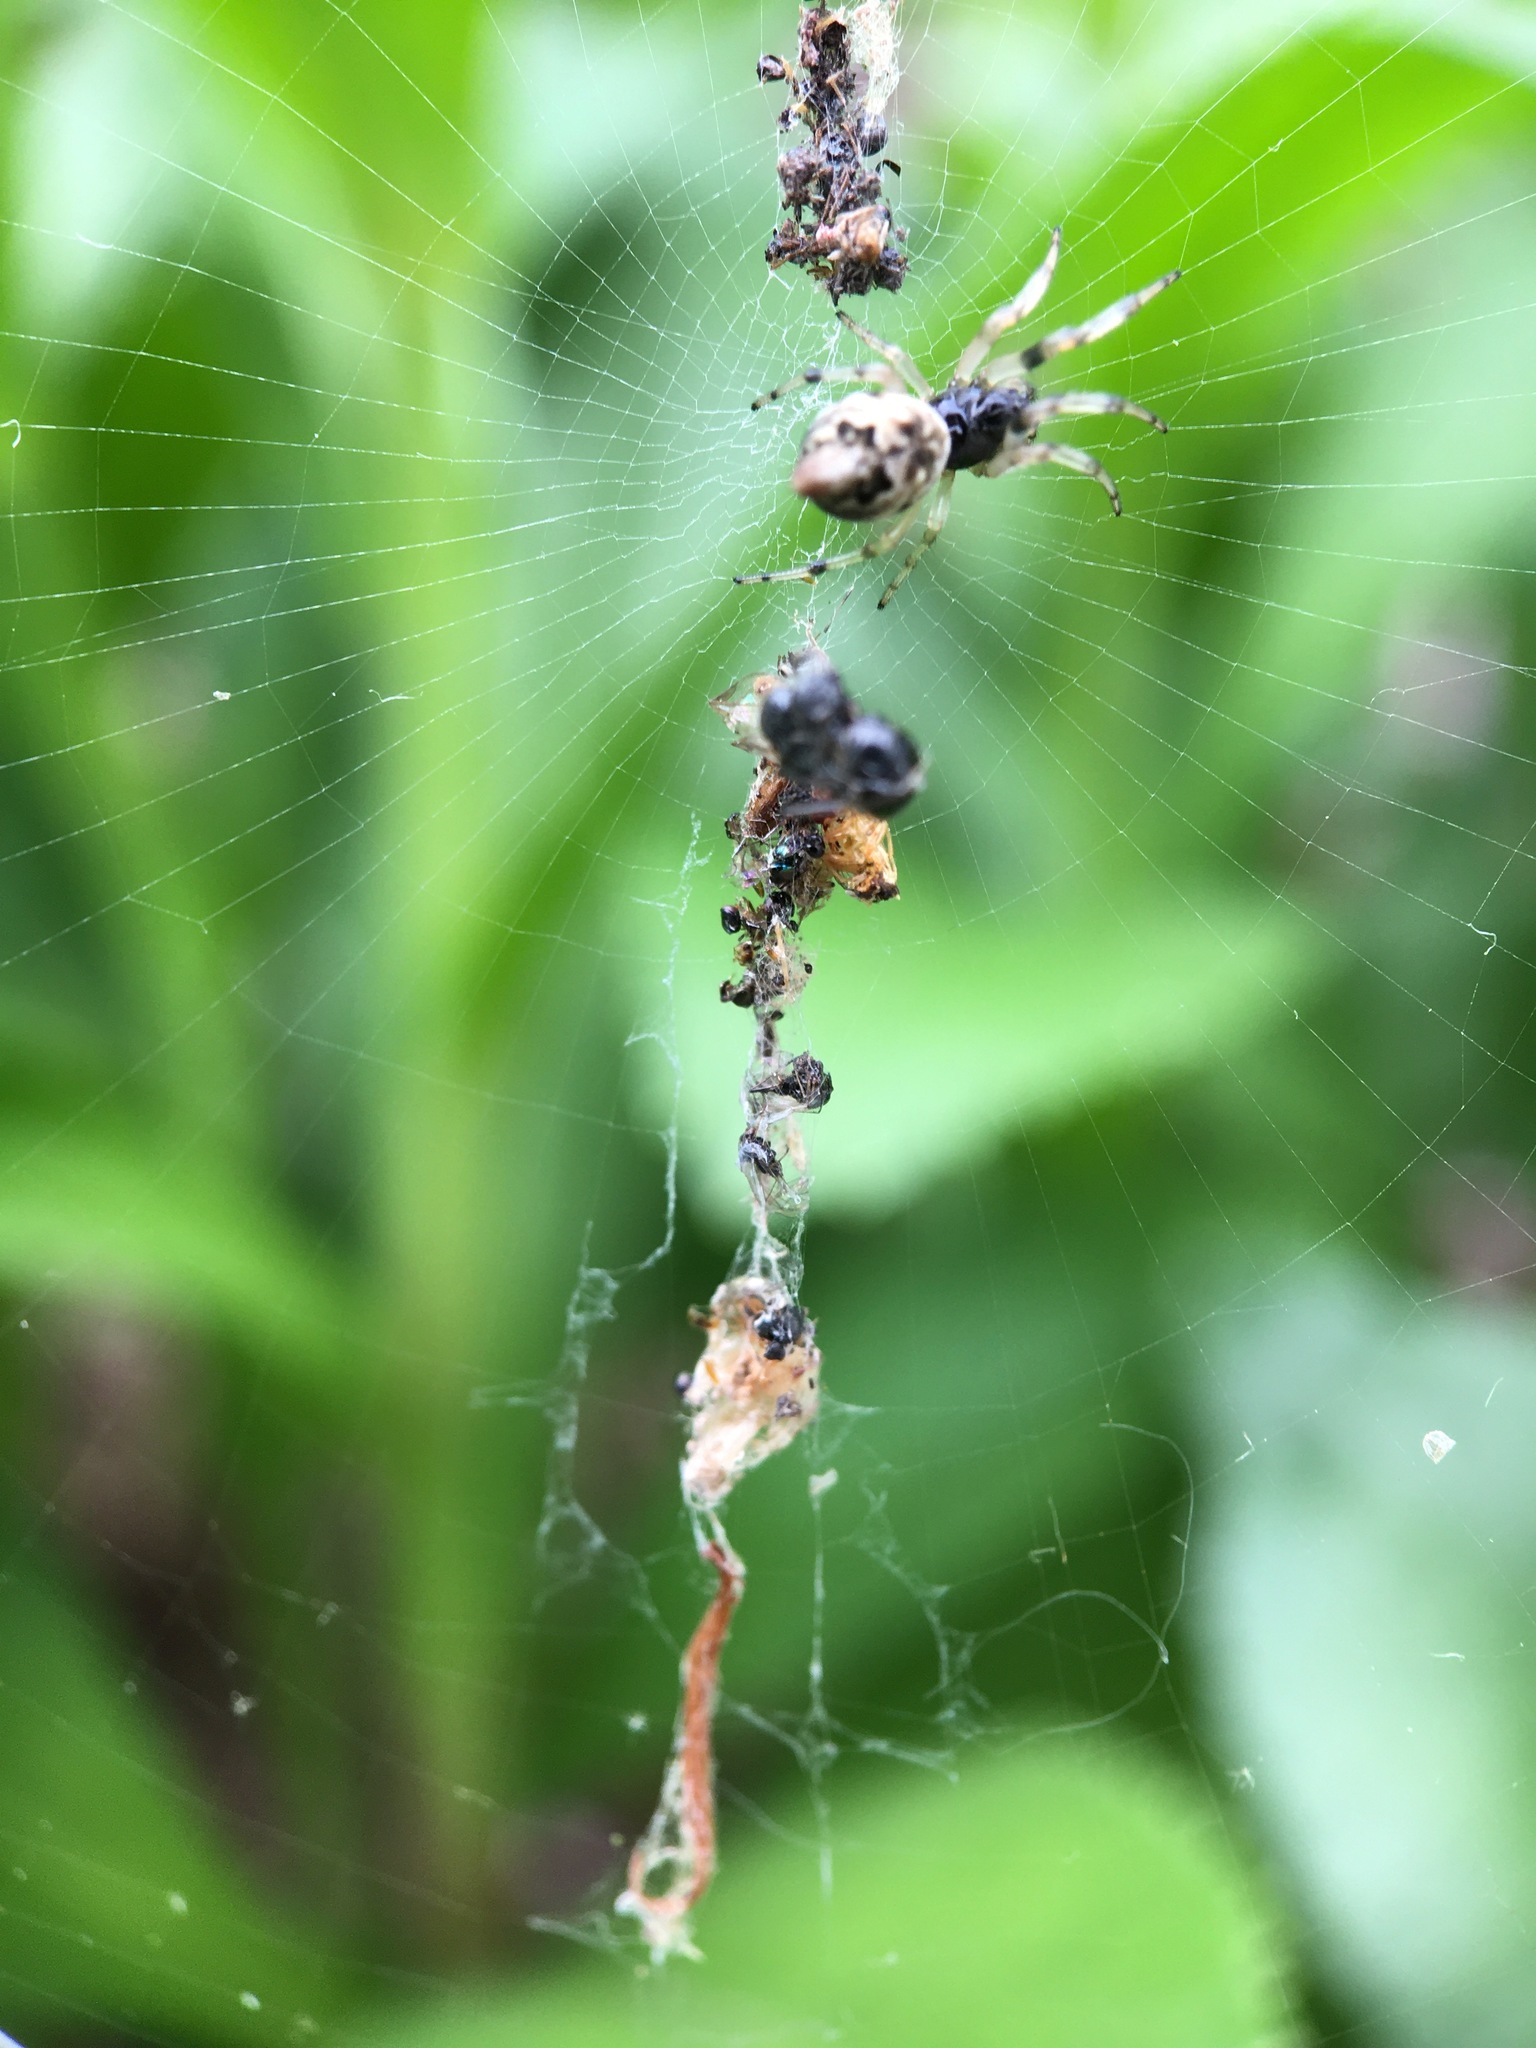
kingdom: Animalia
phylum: Arthropoda
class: Arachnida
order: Araneae
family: Araneidae
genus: Cyclosa
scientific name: Cyclosa turbinata
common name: Orb weavers
